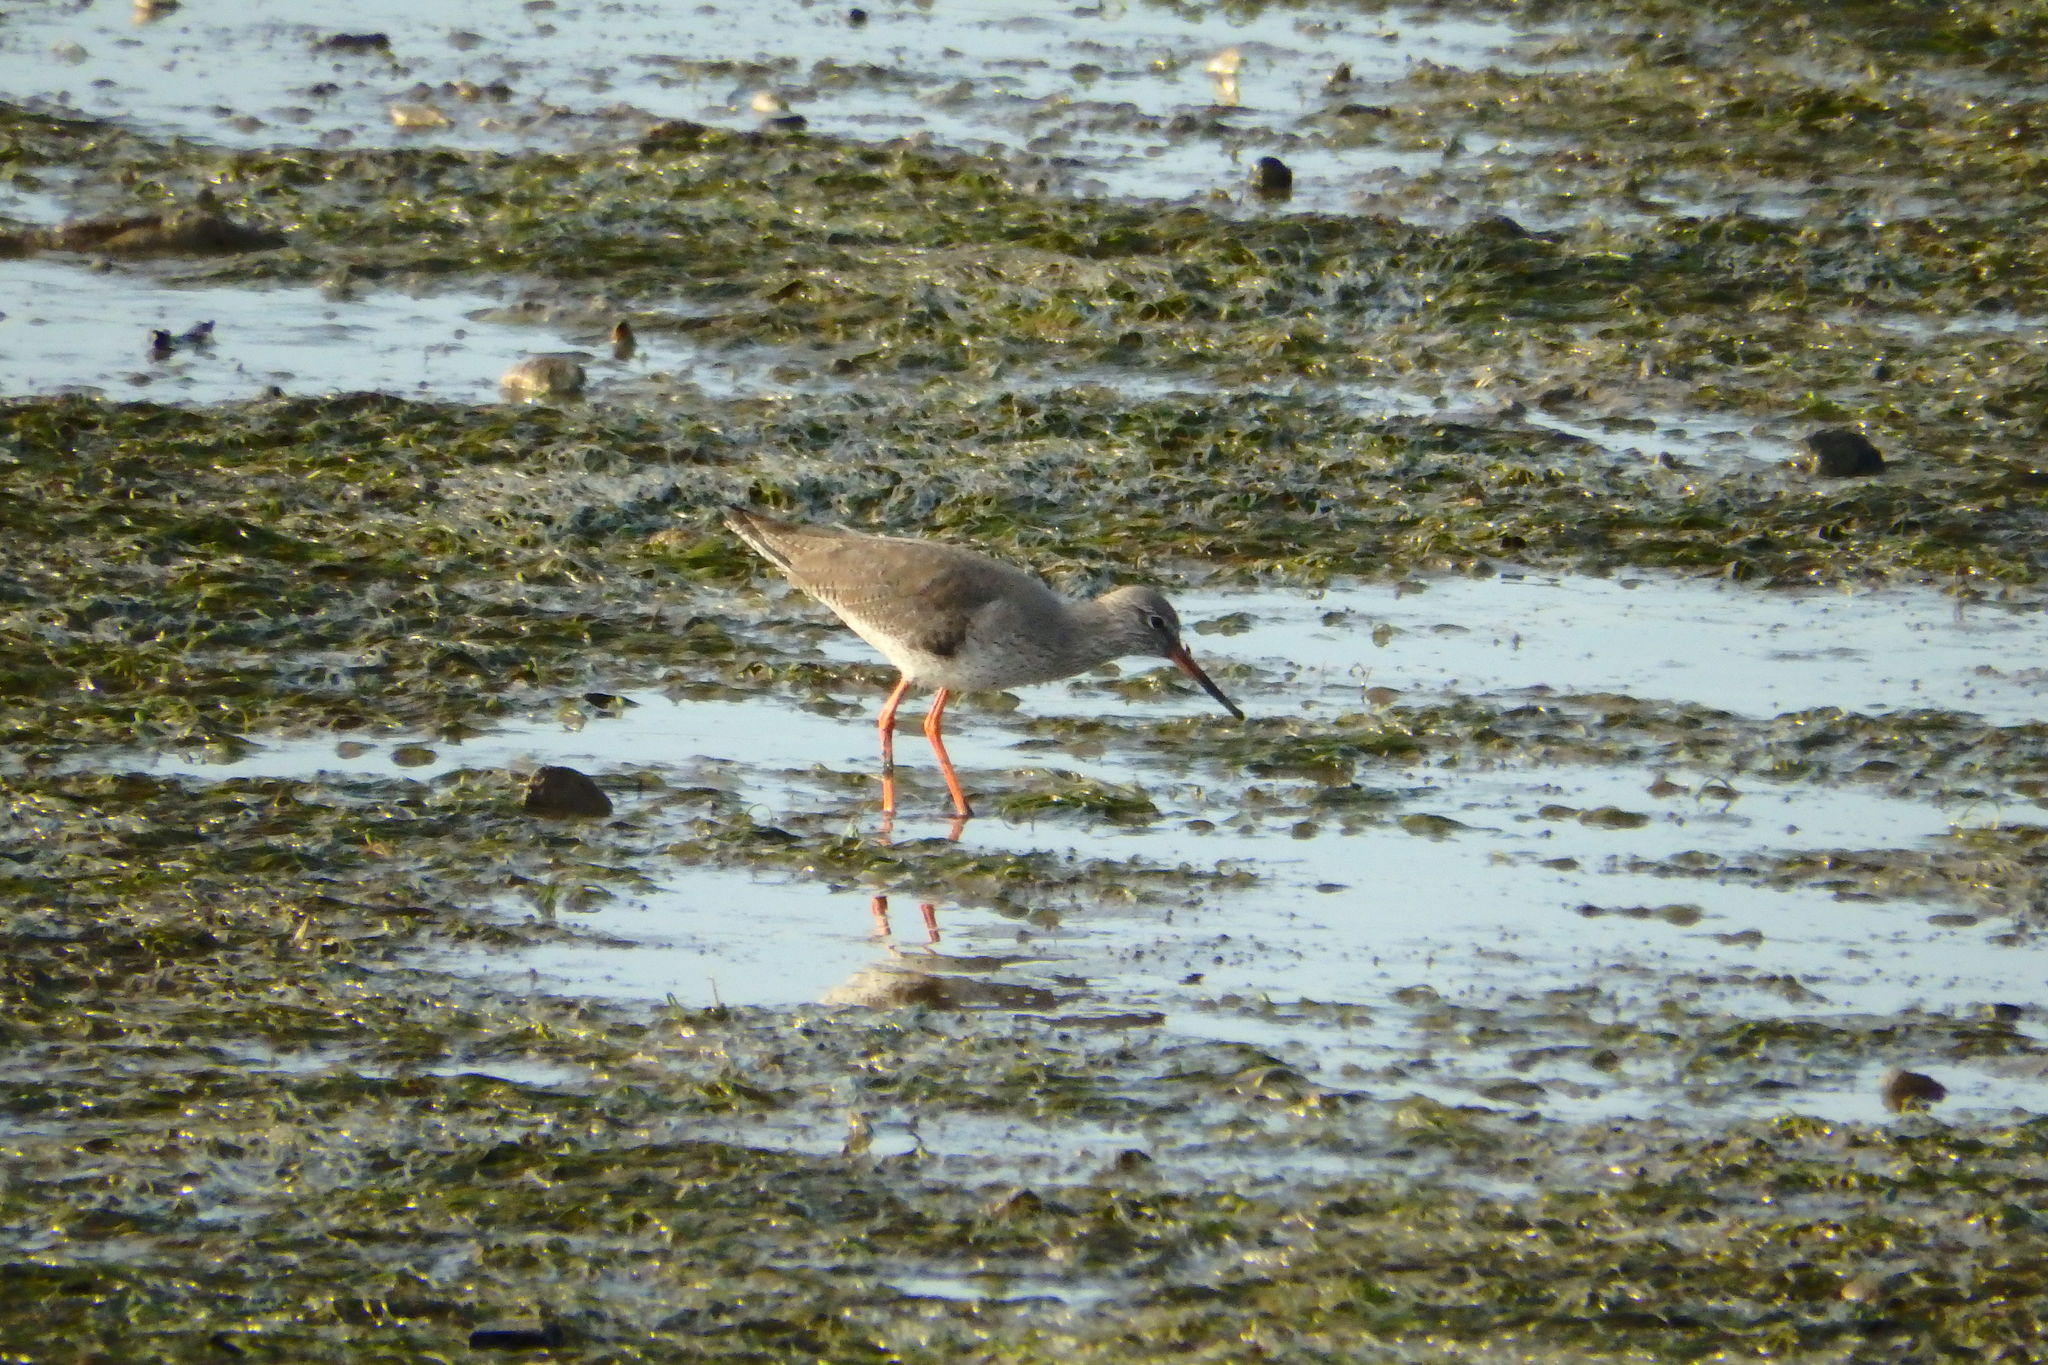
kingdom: Animalia
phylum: Chordata
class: Aves
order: Charadriiformes
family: Scolopacidae
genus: Tringa
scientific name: Tringa totanus
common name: Common redshank
